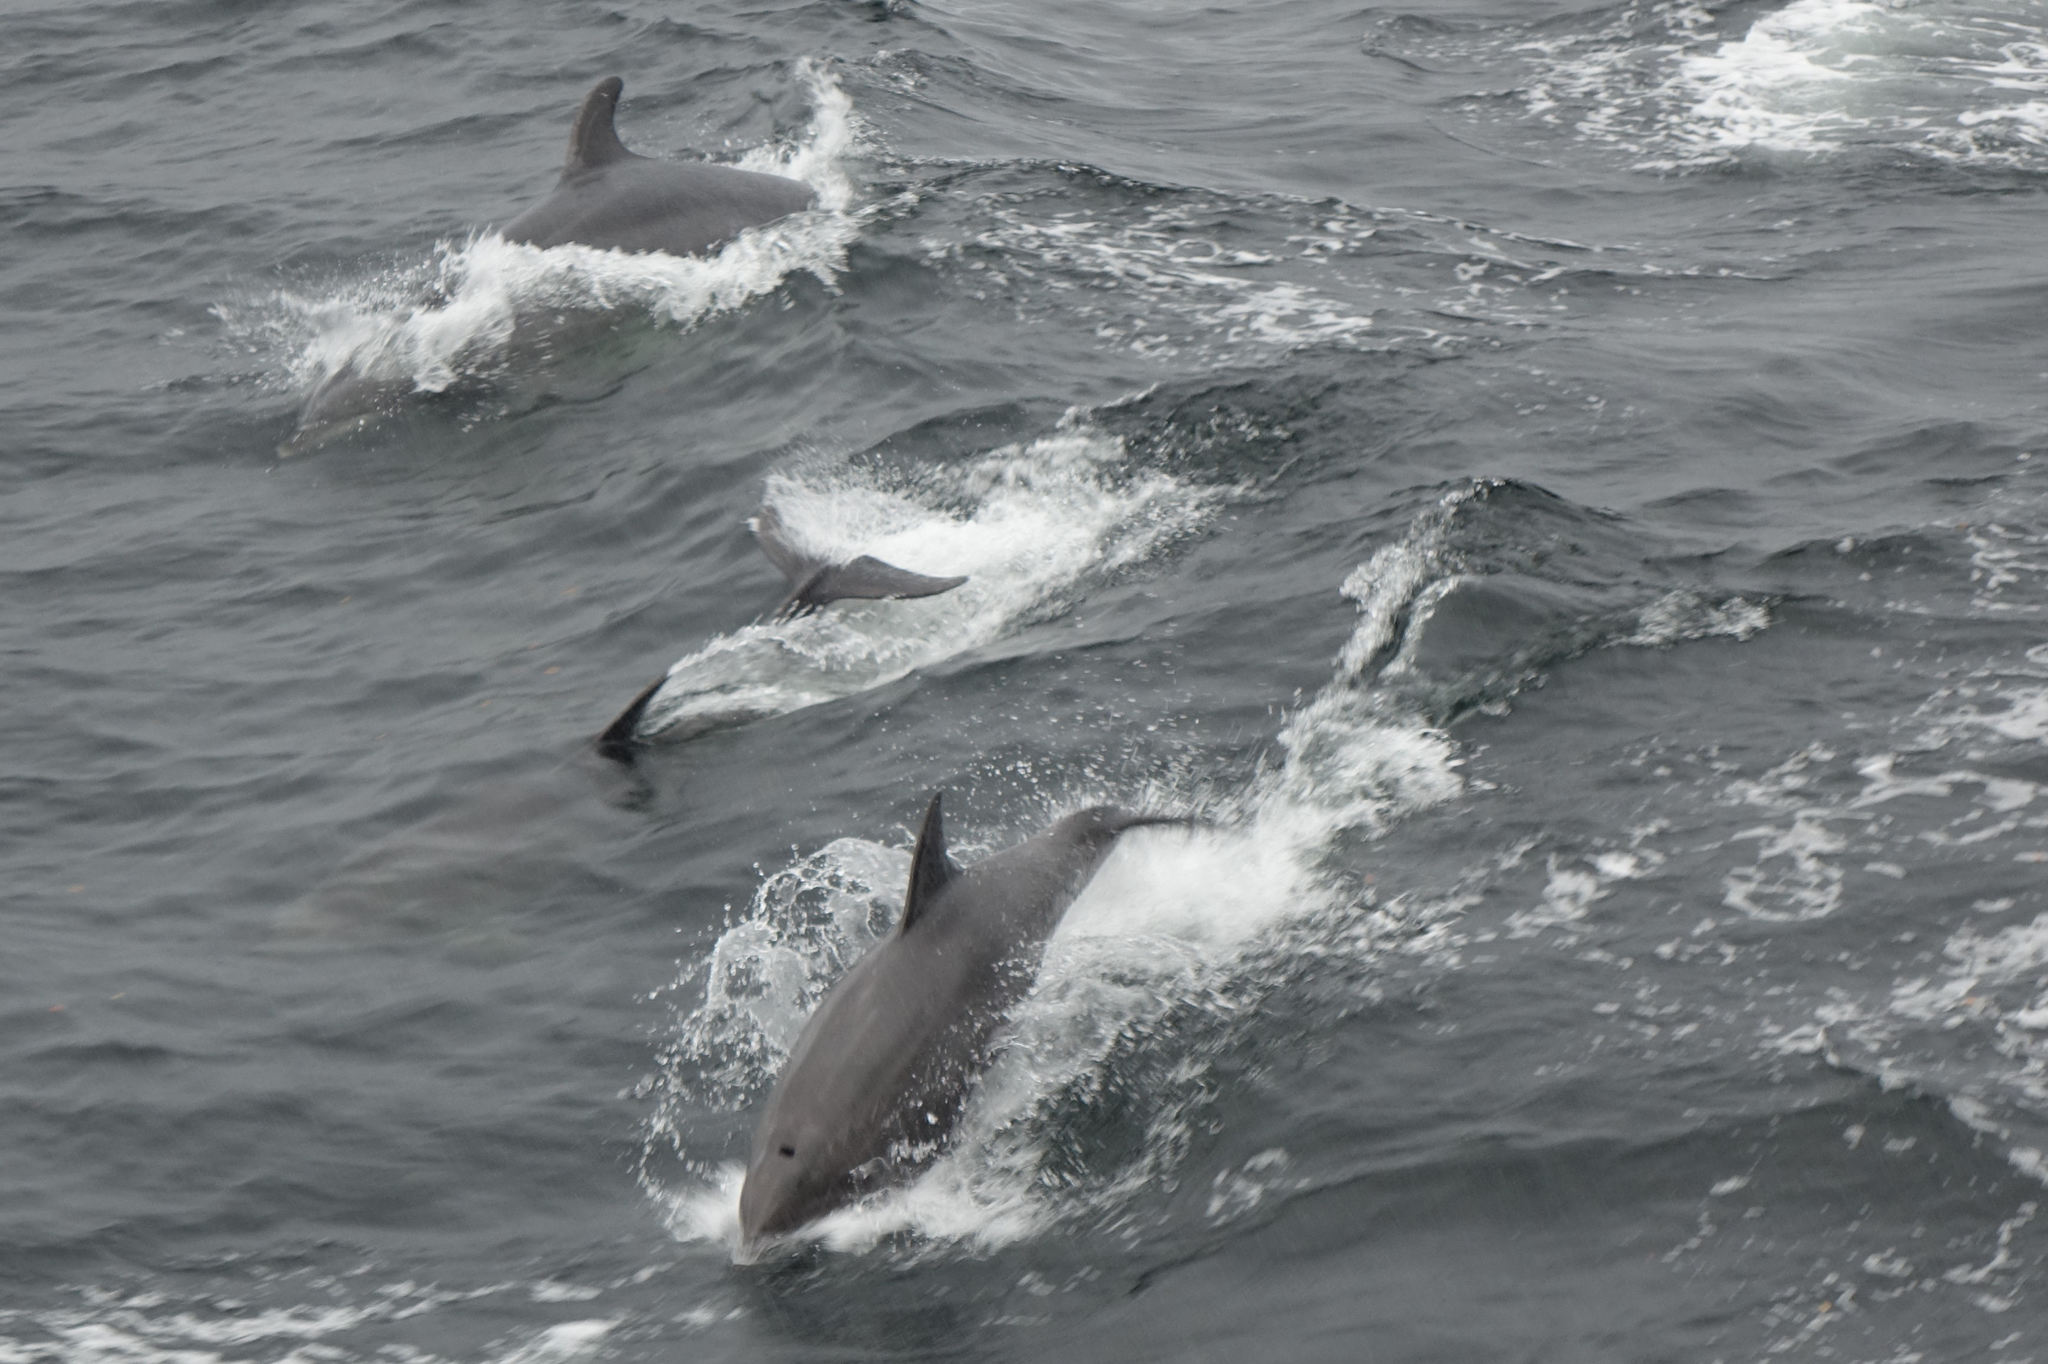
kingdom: Animalia
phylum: Chordata
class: Mammalia
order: Cetacea
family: Delphinidae
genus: Tursiops
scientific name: Tursiops truncatus
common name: Bottlenose dolphin
